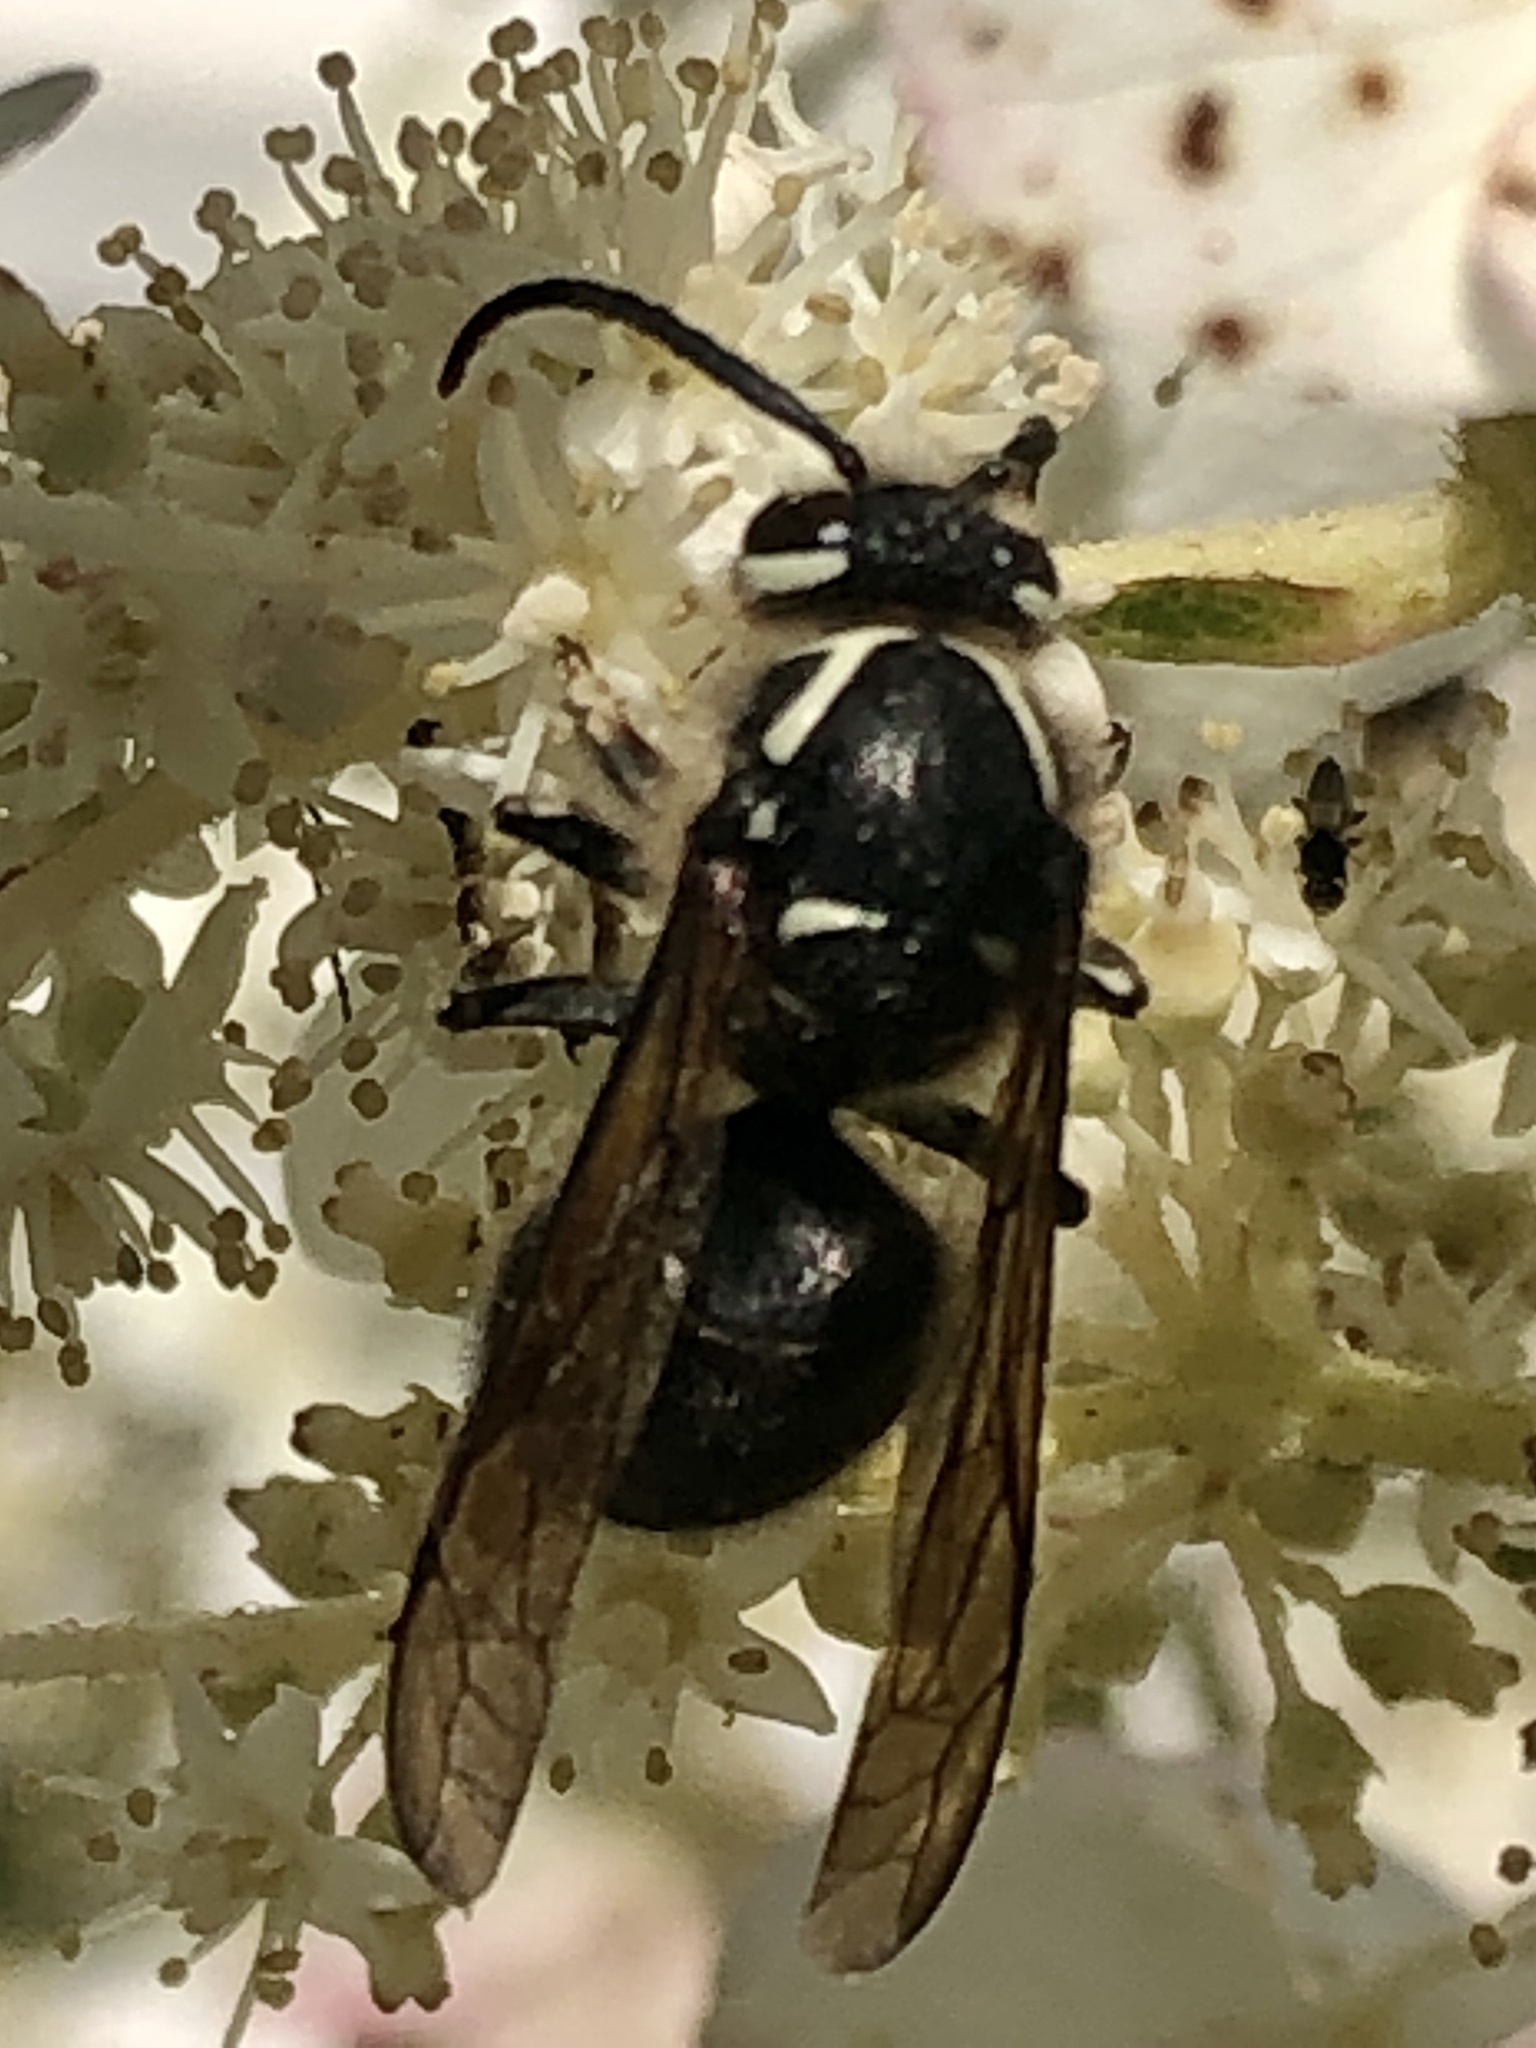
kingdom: Animalia
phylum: Arthropoda
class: Insecta
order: Hymenoptera
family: Vespidae
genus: Dolichovespula
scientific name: Dolichovespula maculata
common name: Bald-faced hornet
